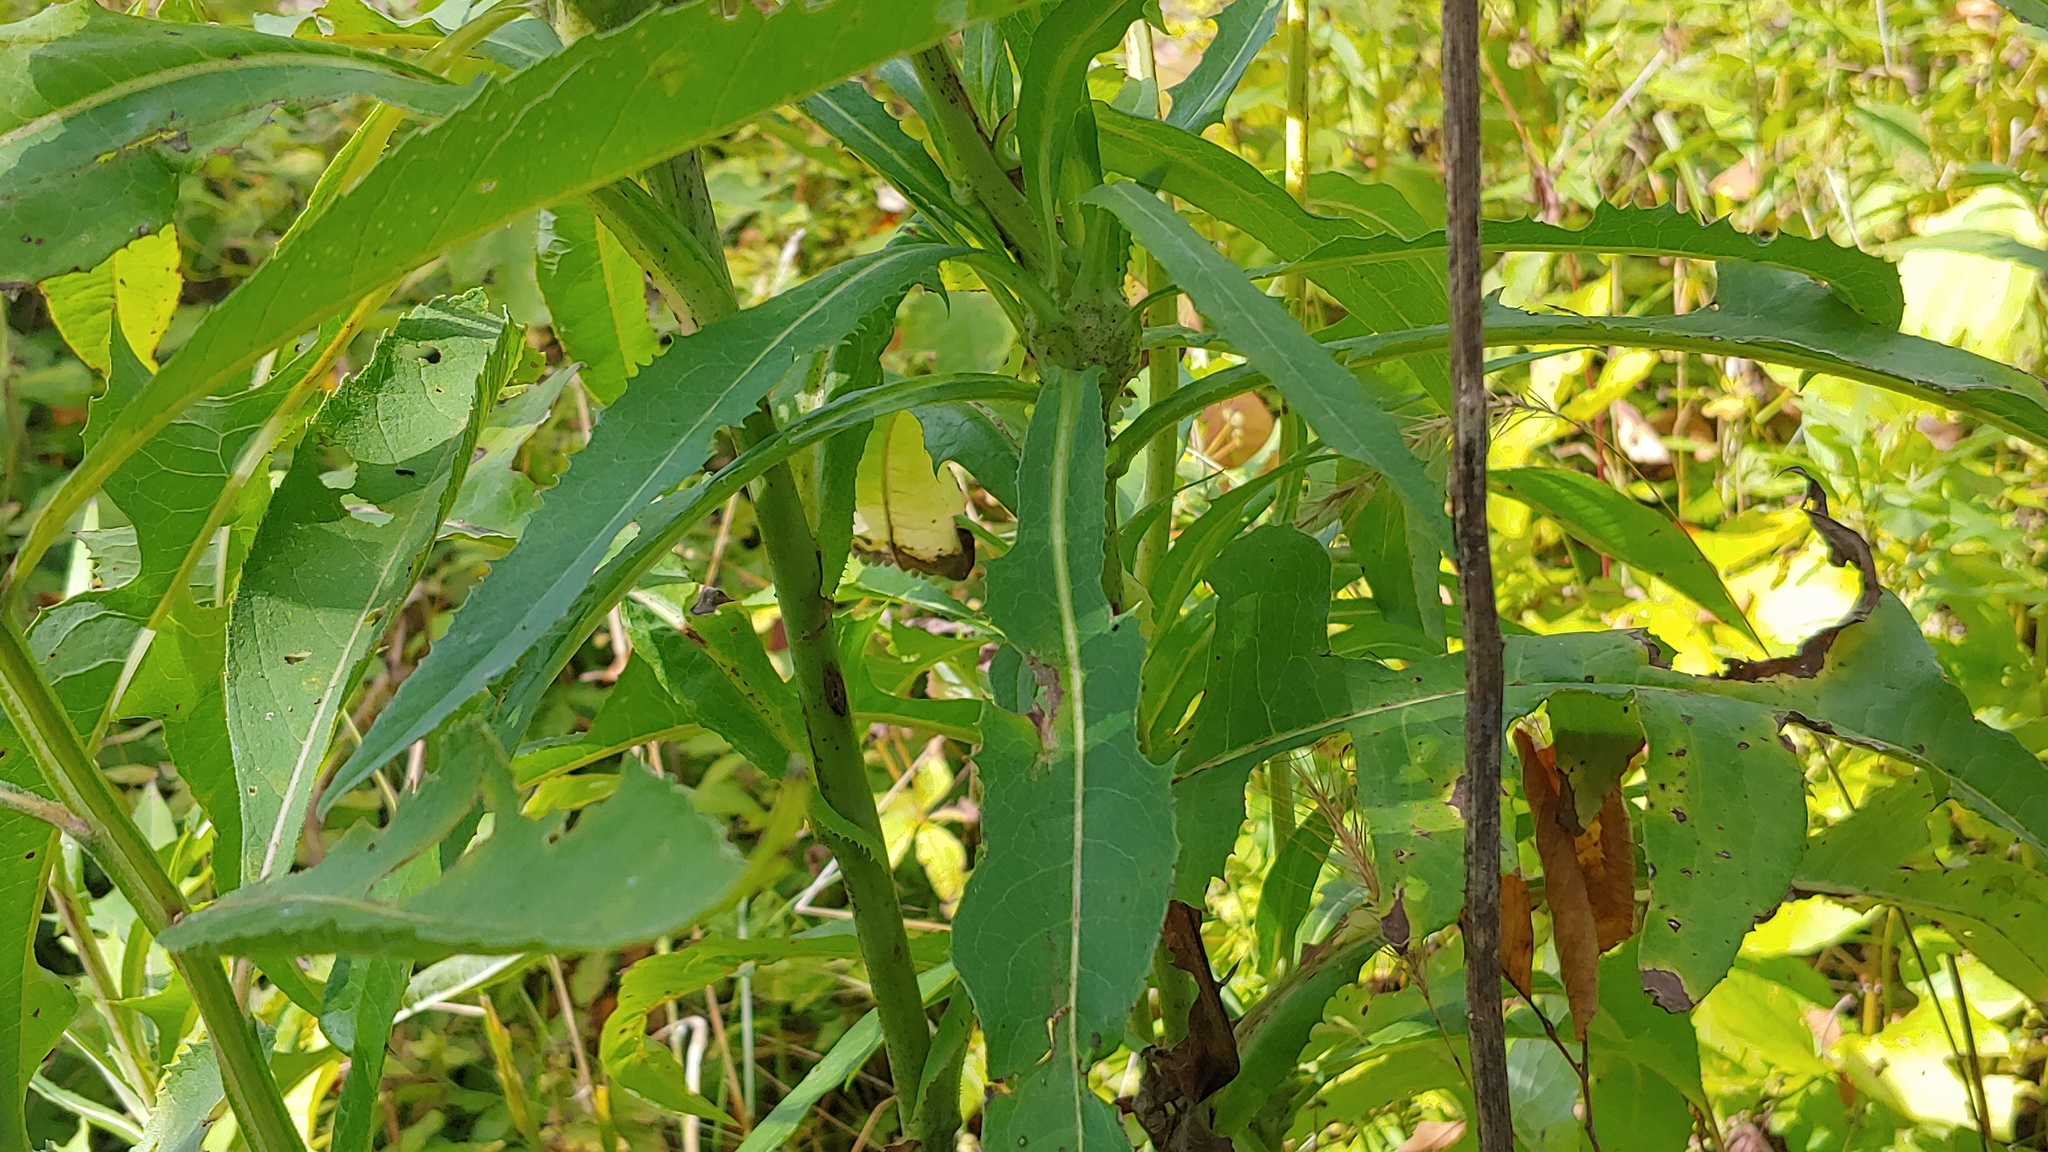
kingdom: Plantae
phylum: Tracheophyta
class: Magnoliopsida
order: Asterales
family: Asteraceae
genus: Lactuca
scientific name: Lactuca canadensis
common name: Canada lettuce
